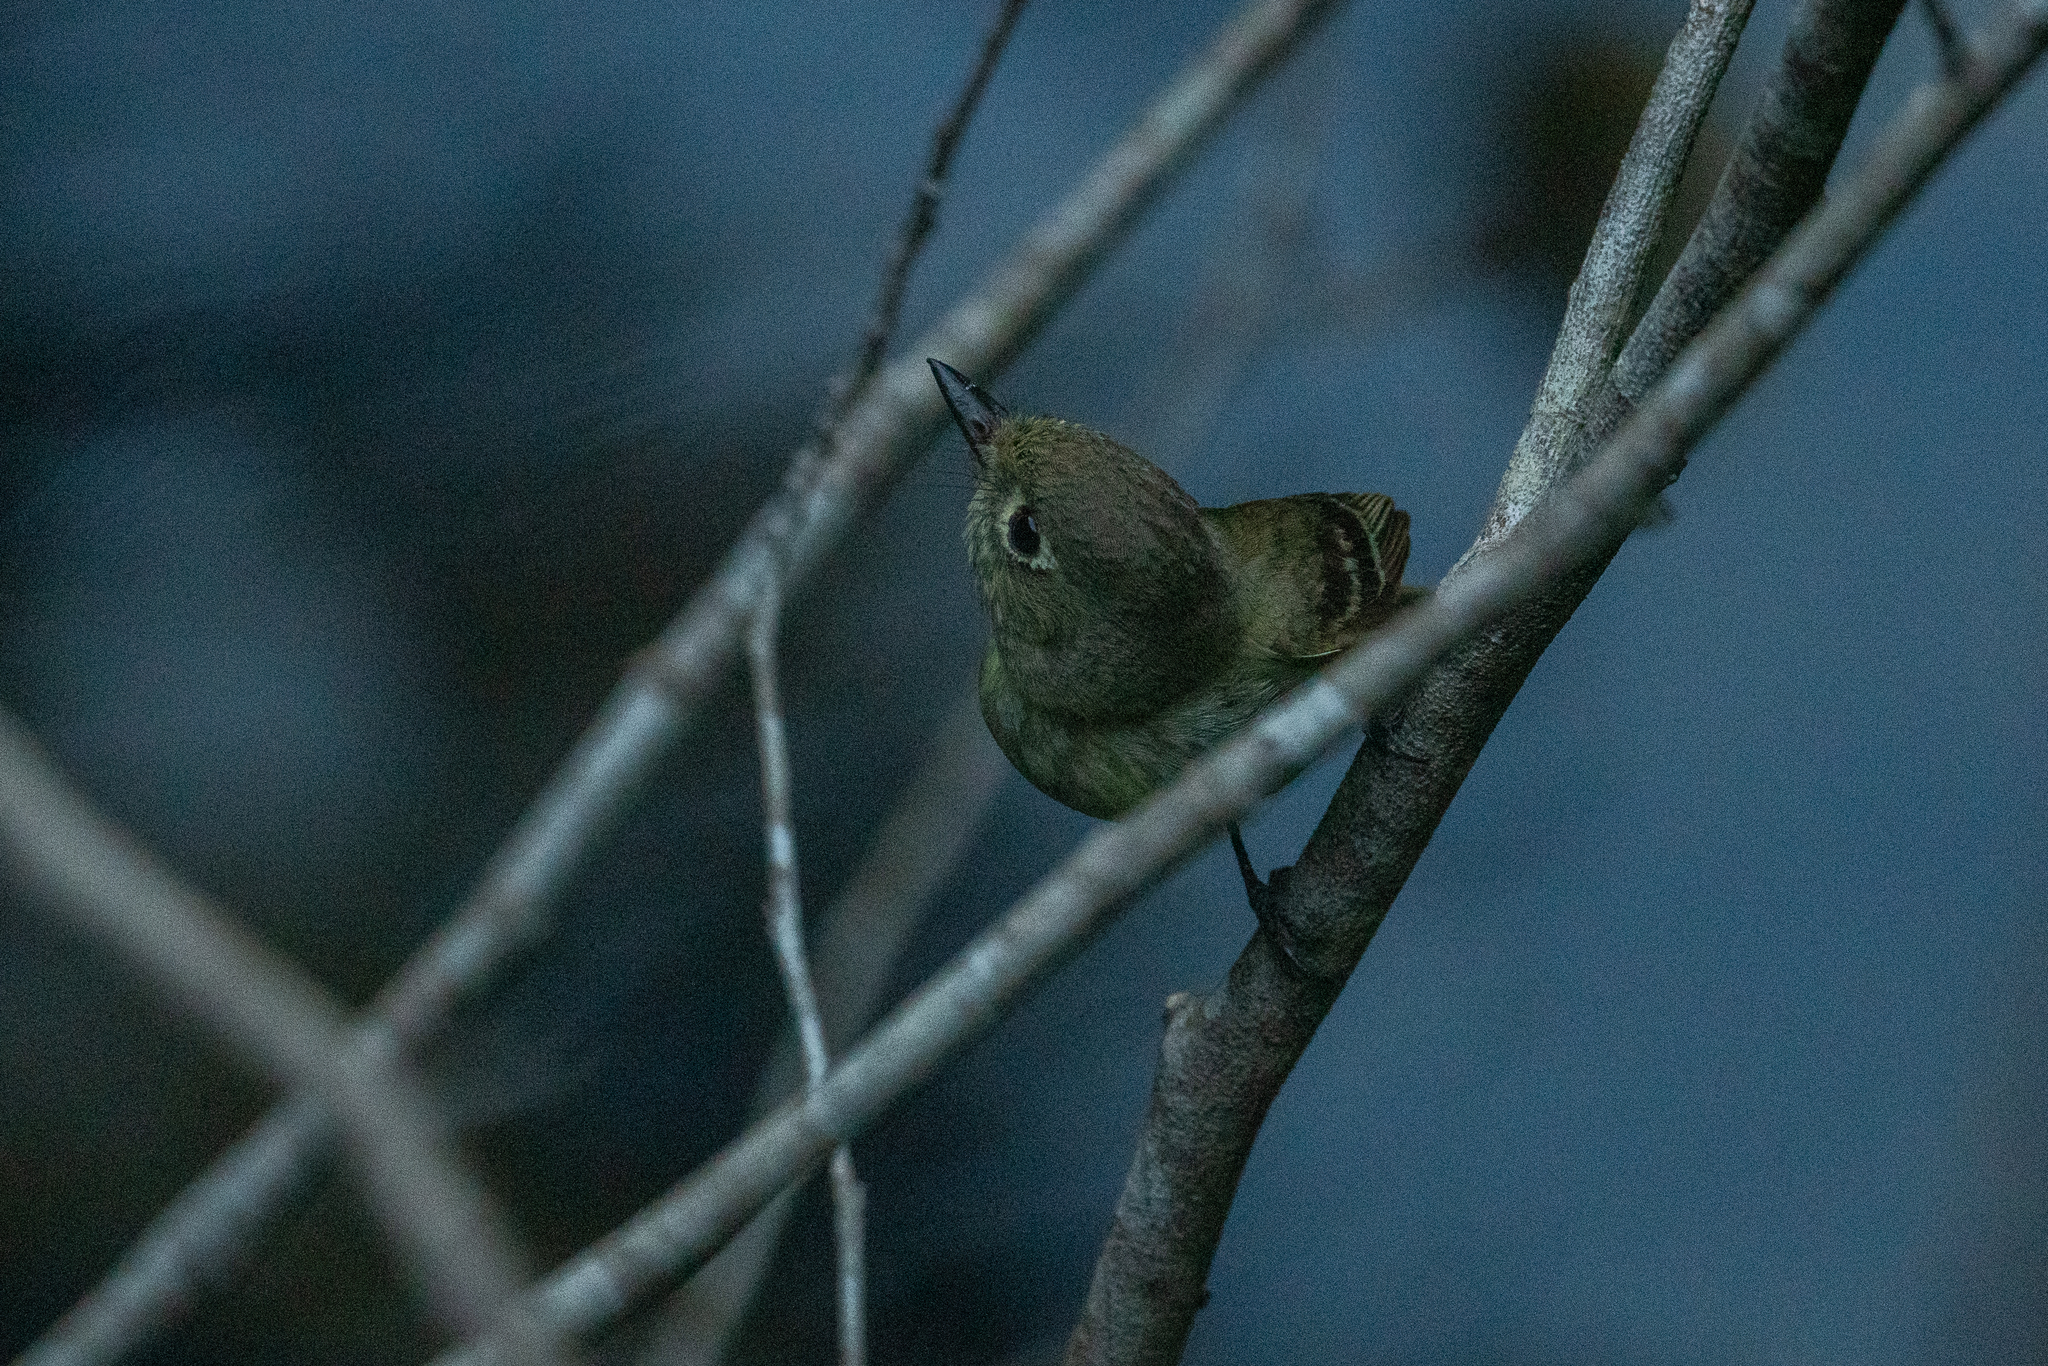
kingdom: Animalia
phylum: Chordata
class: Aves
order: Passeriformes
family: Tyrannidae
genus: Empidonax
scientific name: Empidonax difficilis
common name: Pacific-slope flycatcher
